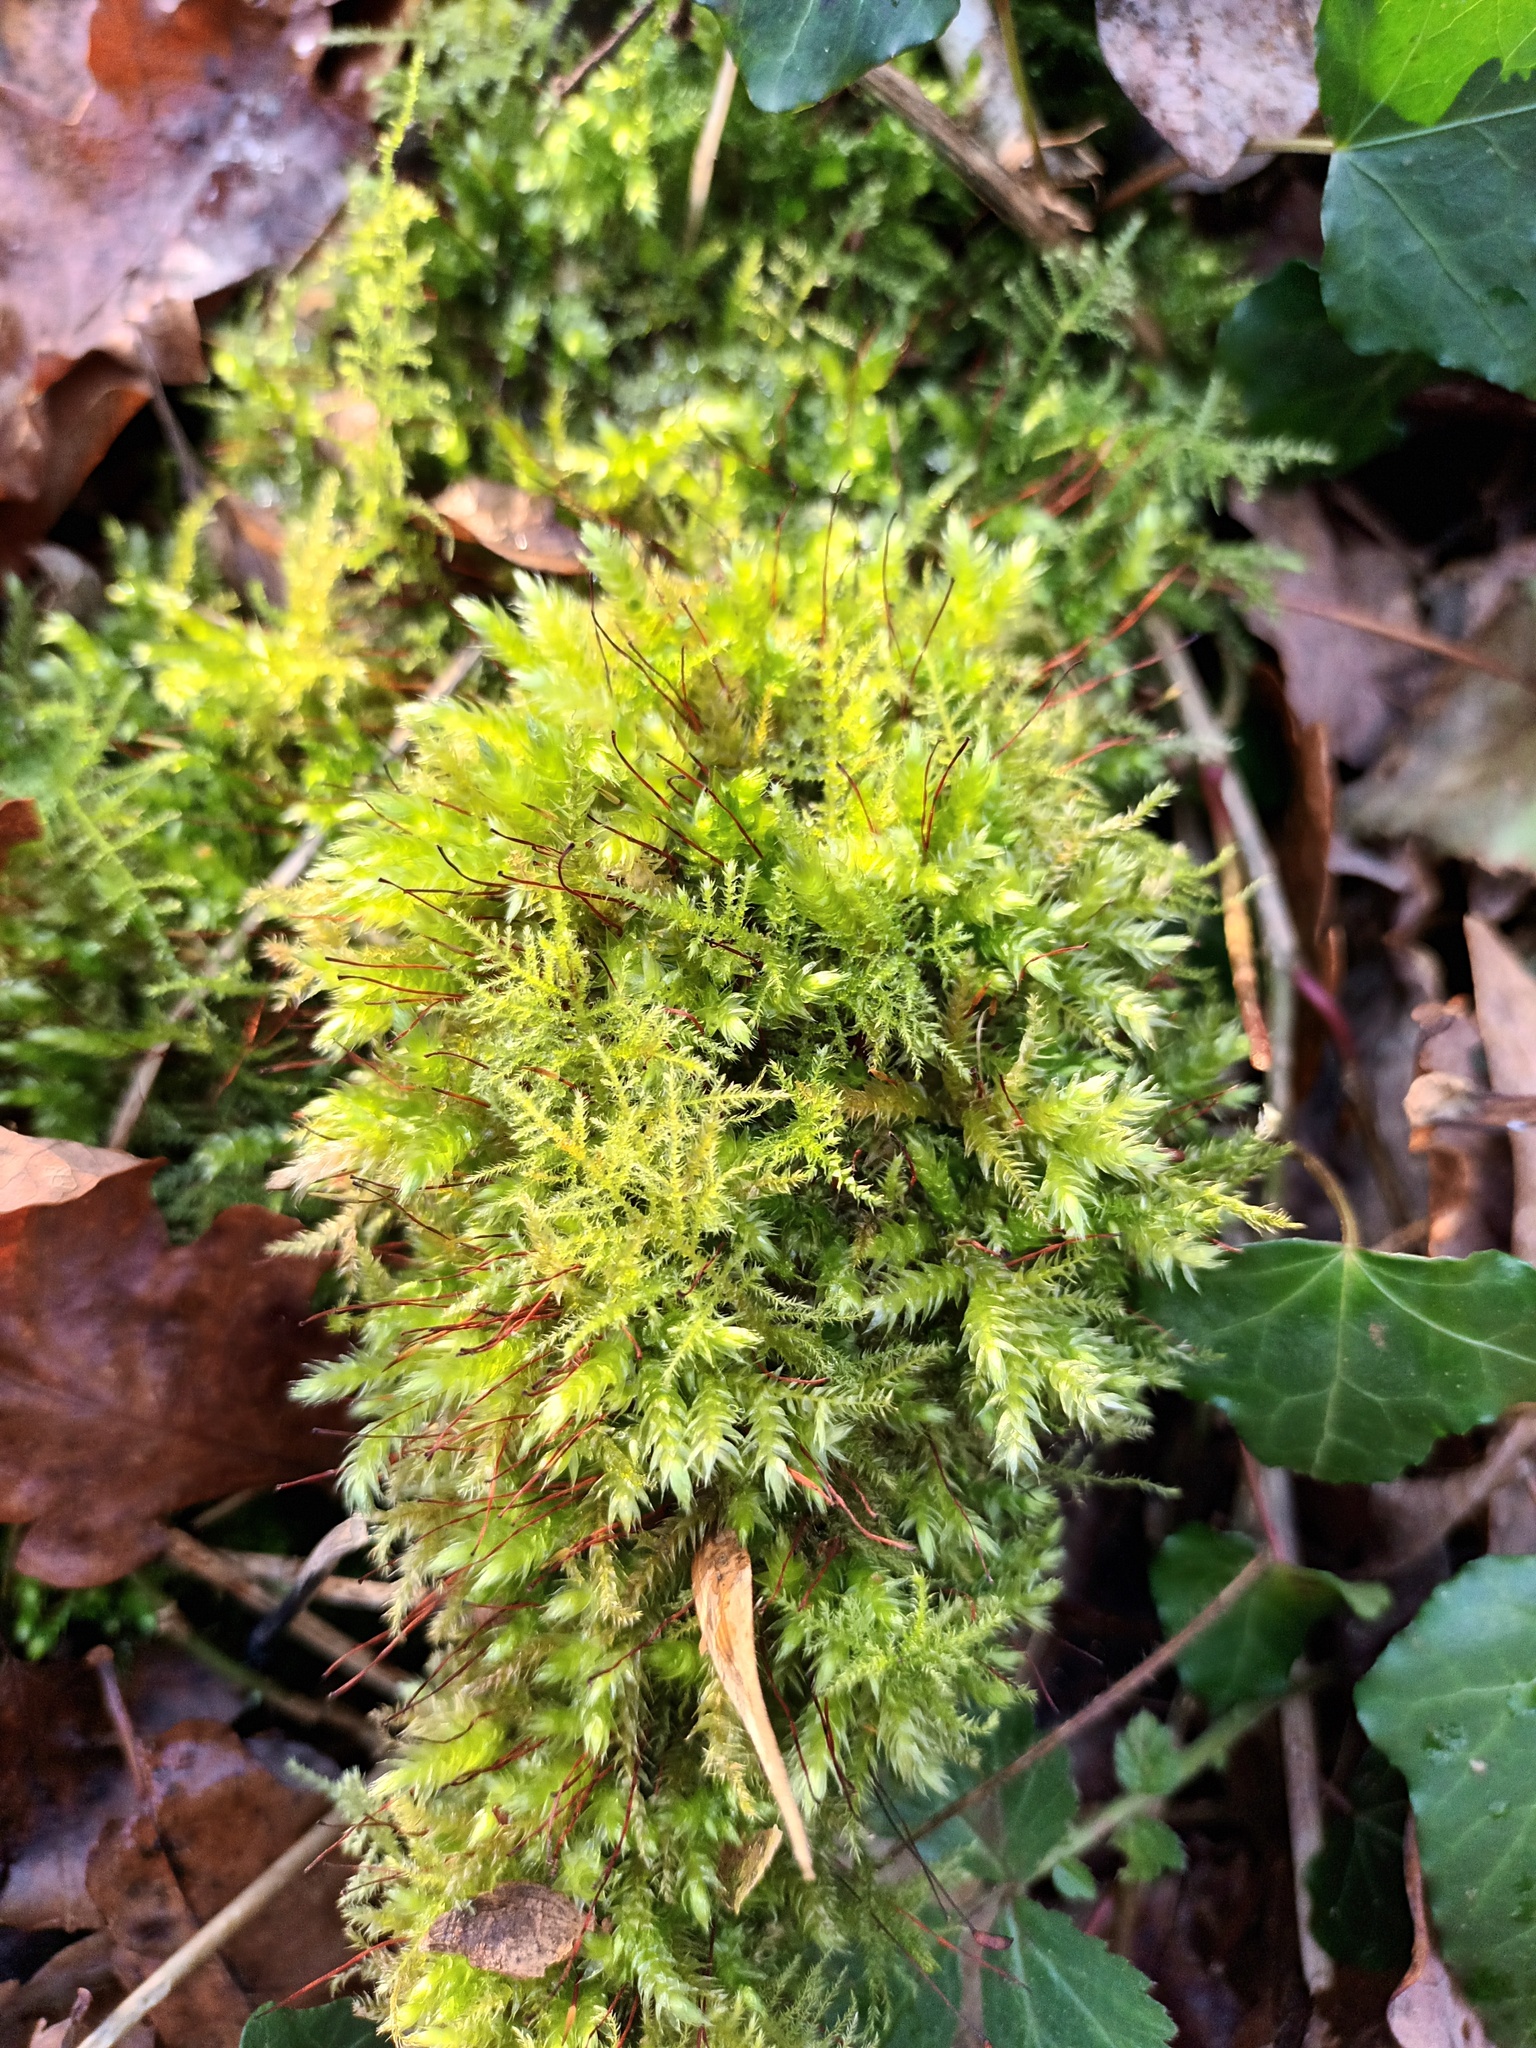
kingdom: Plantae
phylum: Bryophyta
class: Bryopsida
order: Hypnales
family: Brachytheciaceae
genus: Kindbergia
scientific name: Kindbergia praelonga
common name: Slender beaked moss
